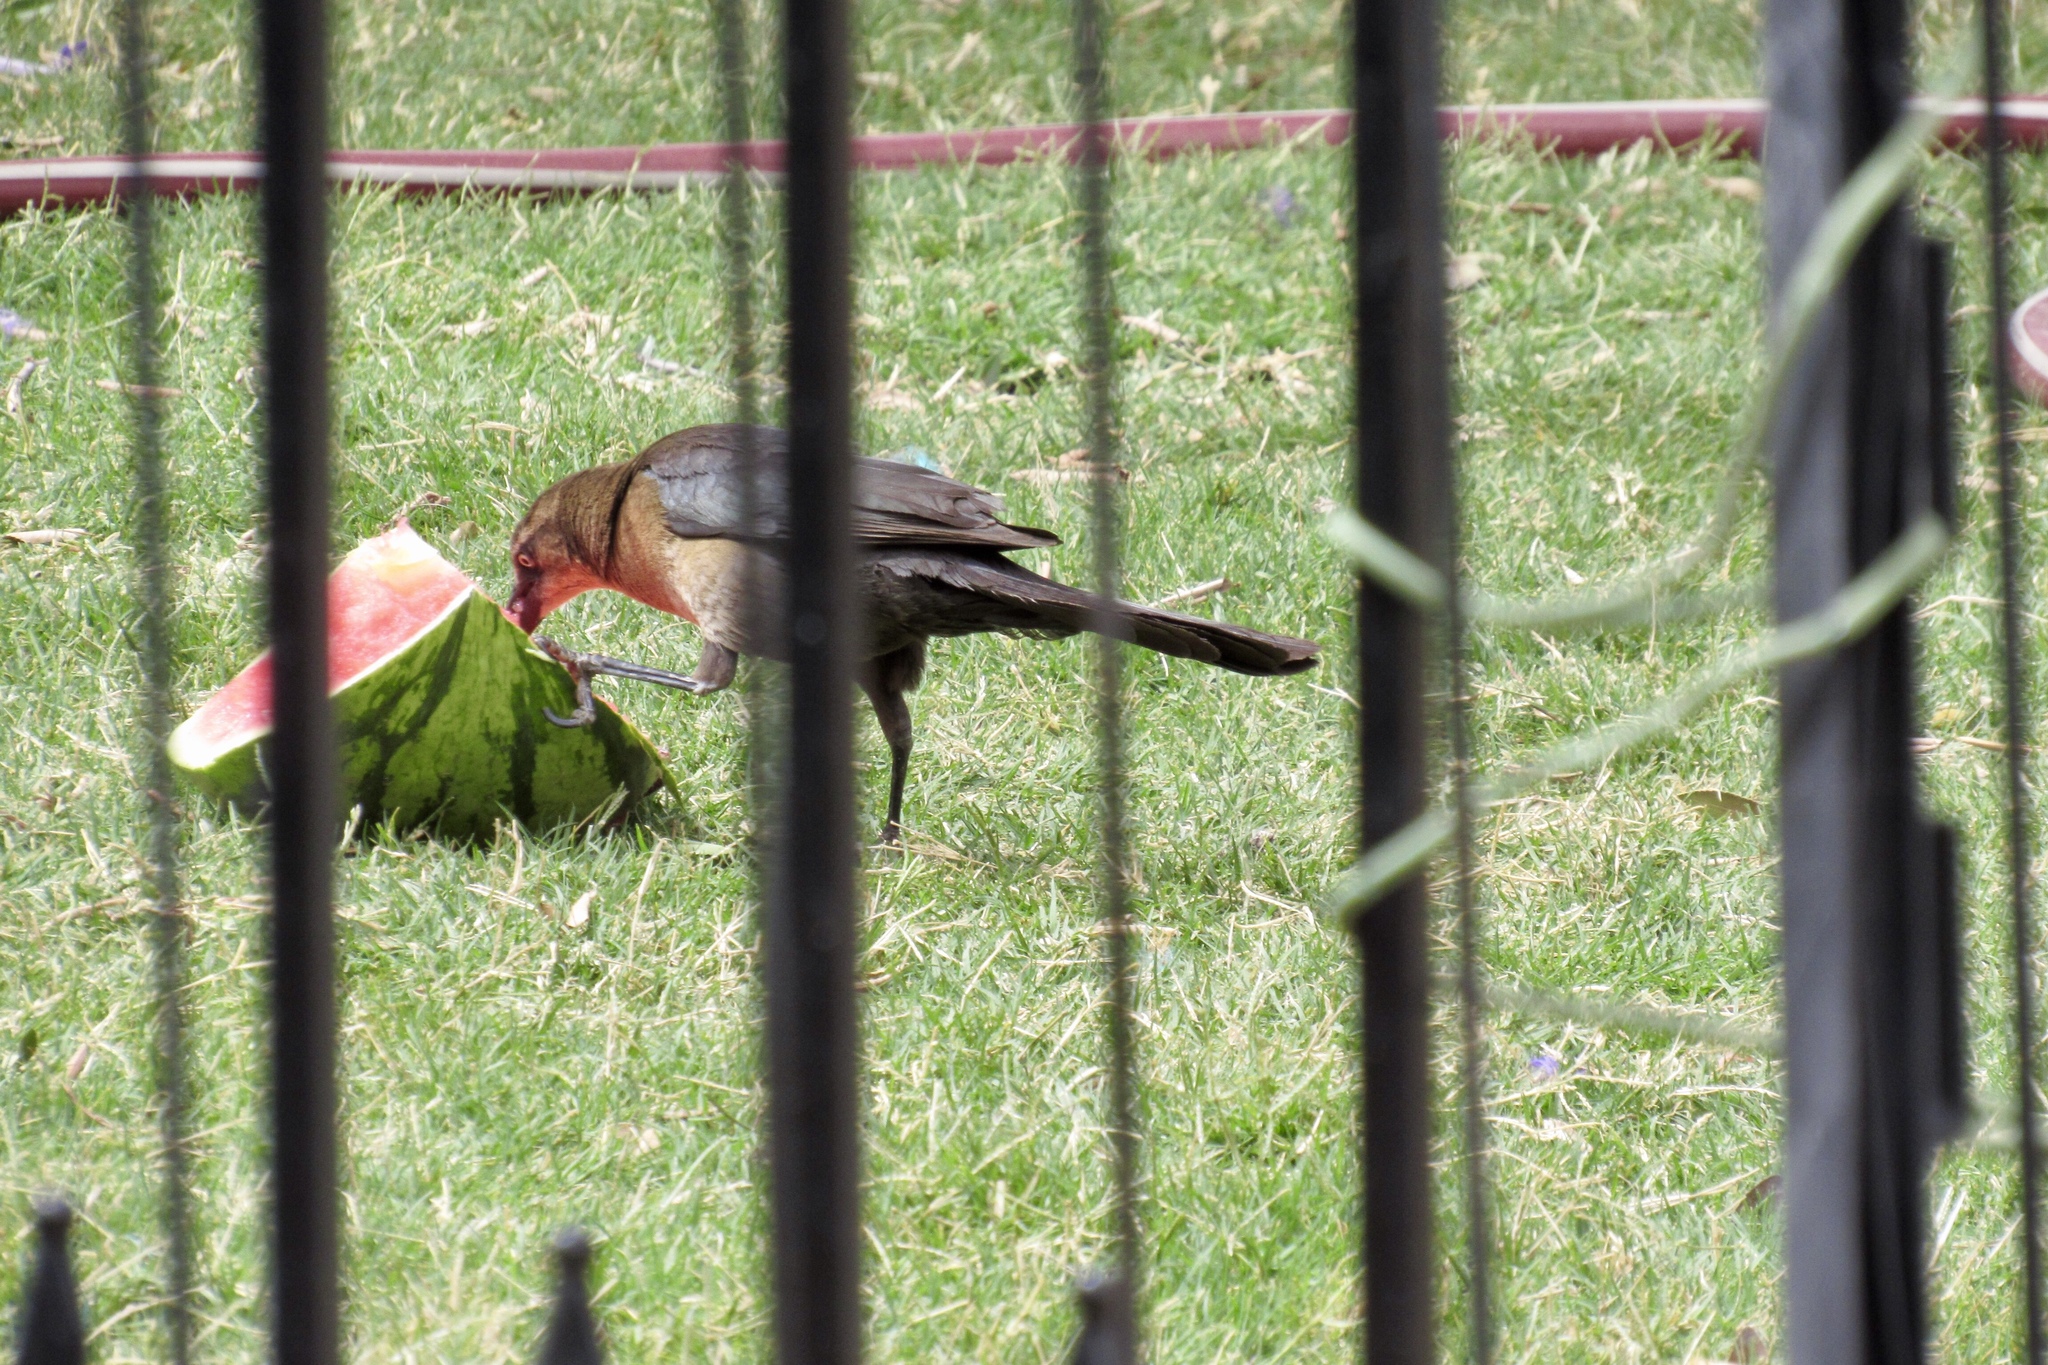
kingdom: Animalia
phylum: Chordata
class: Aves
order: Passeriformes
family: Icteridae
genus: Quiscalus
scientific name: Quiscalus mexicanus
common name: Great-tailed grackle
